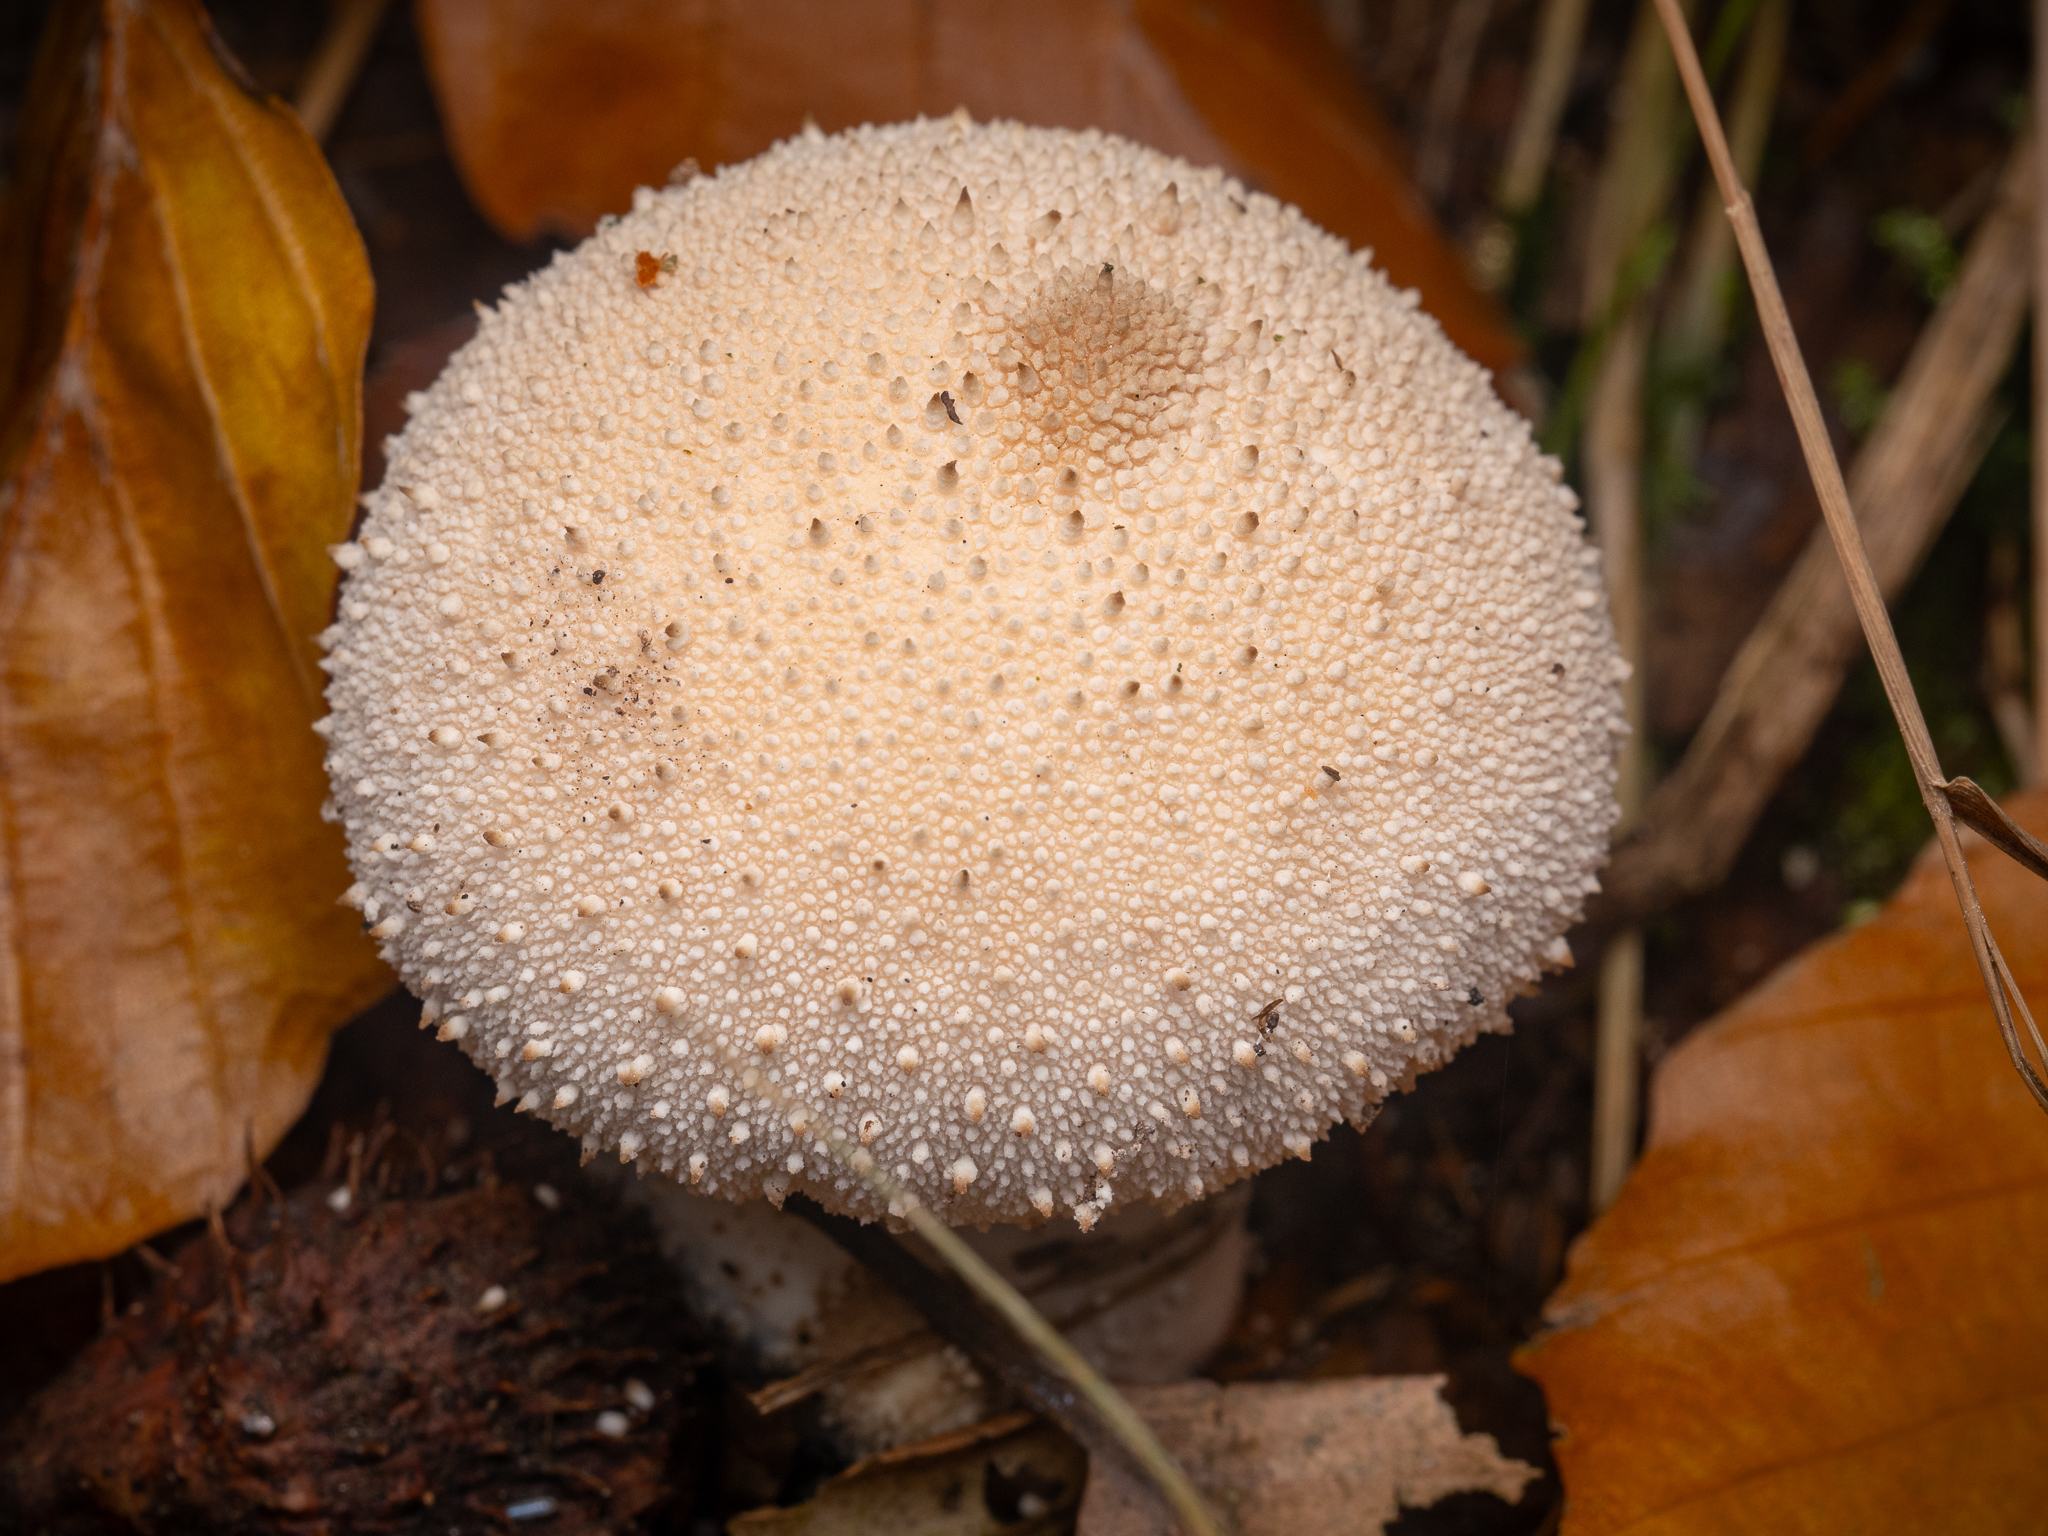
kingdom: Fungi
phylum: Basidiomycota
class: Agaricomycetes
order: Agaricales
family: Lycoperdaceae
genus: Lycoperdon
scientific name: Lycoperdon perlatum
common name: Common puffball
